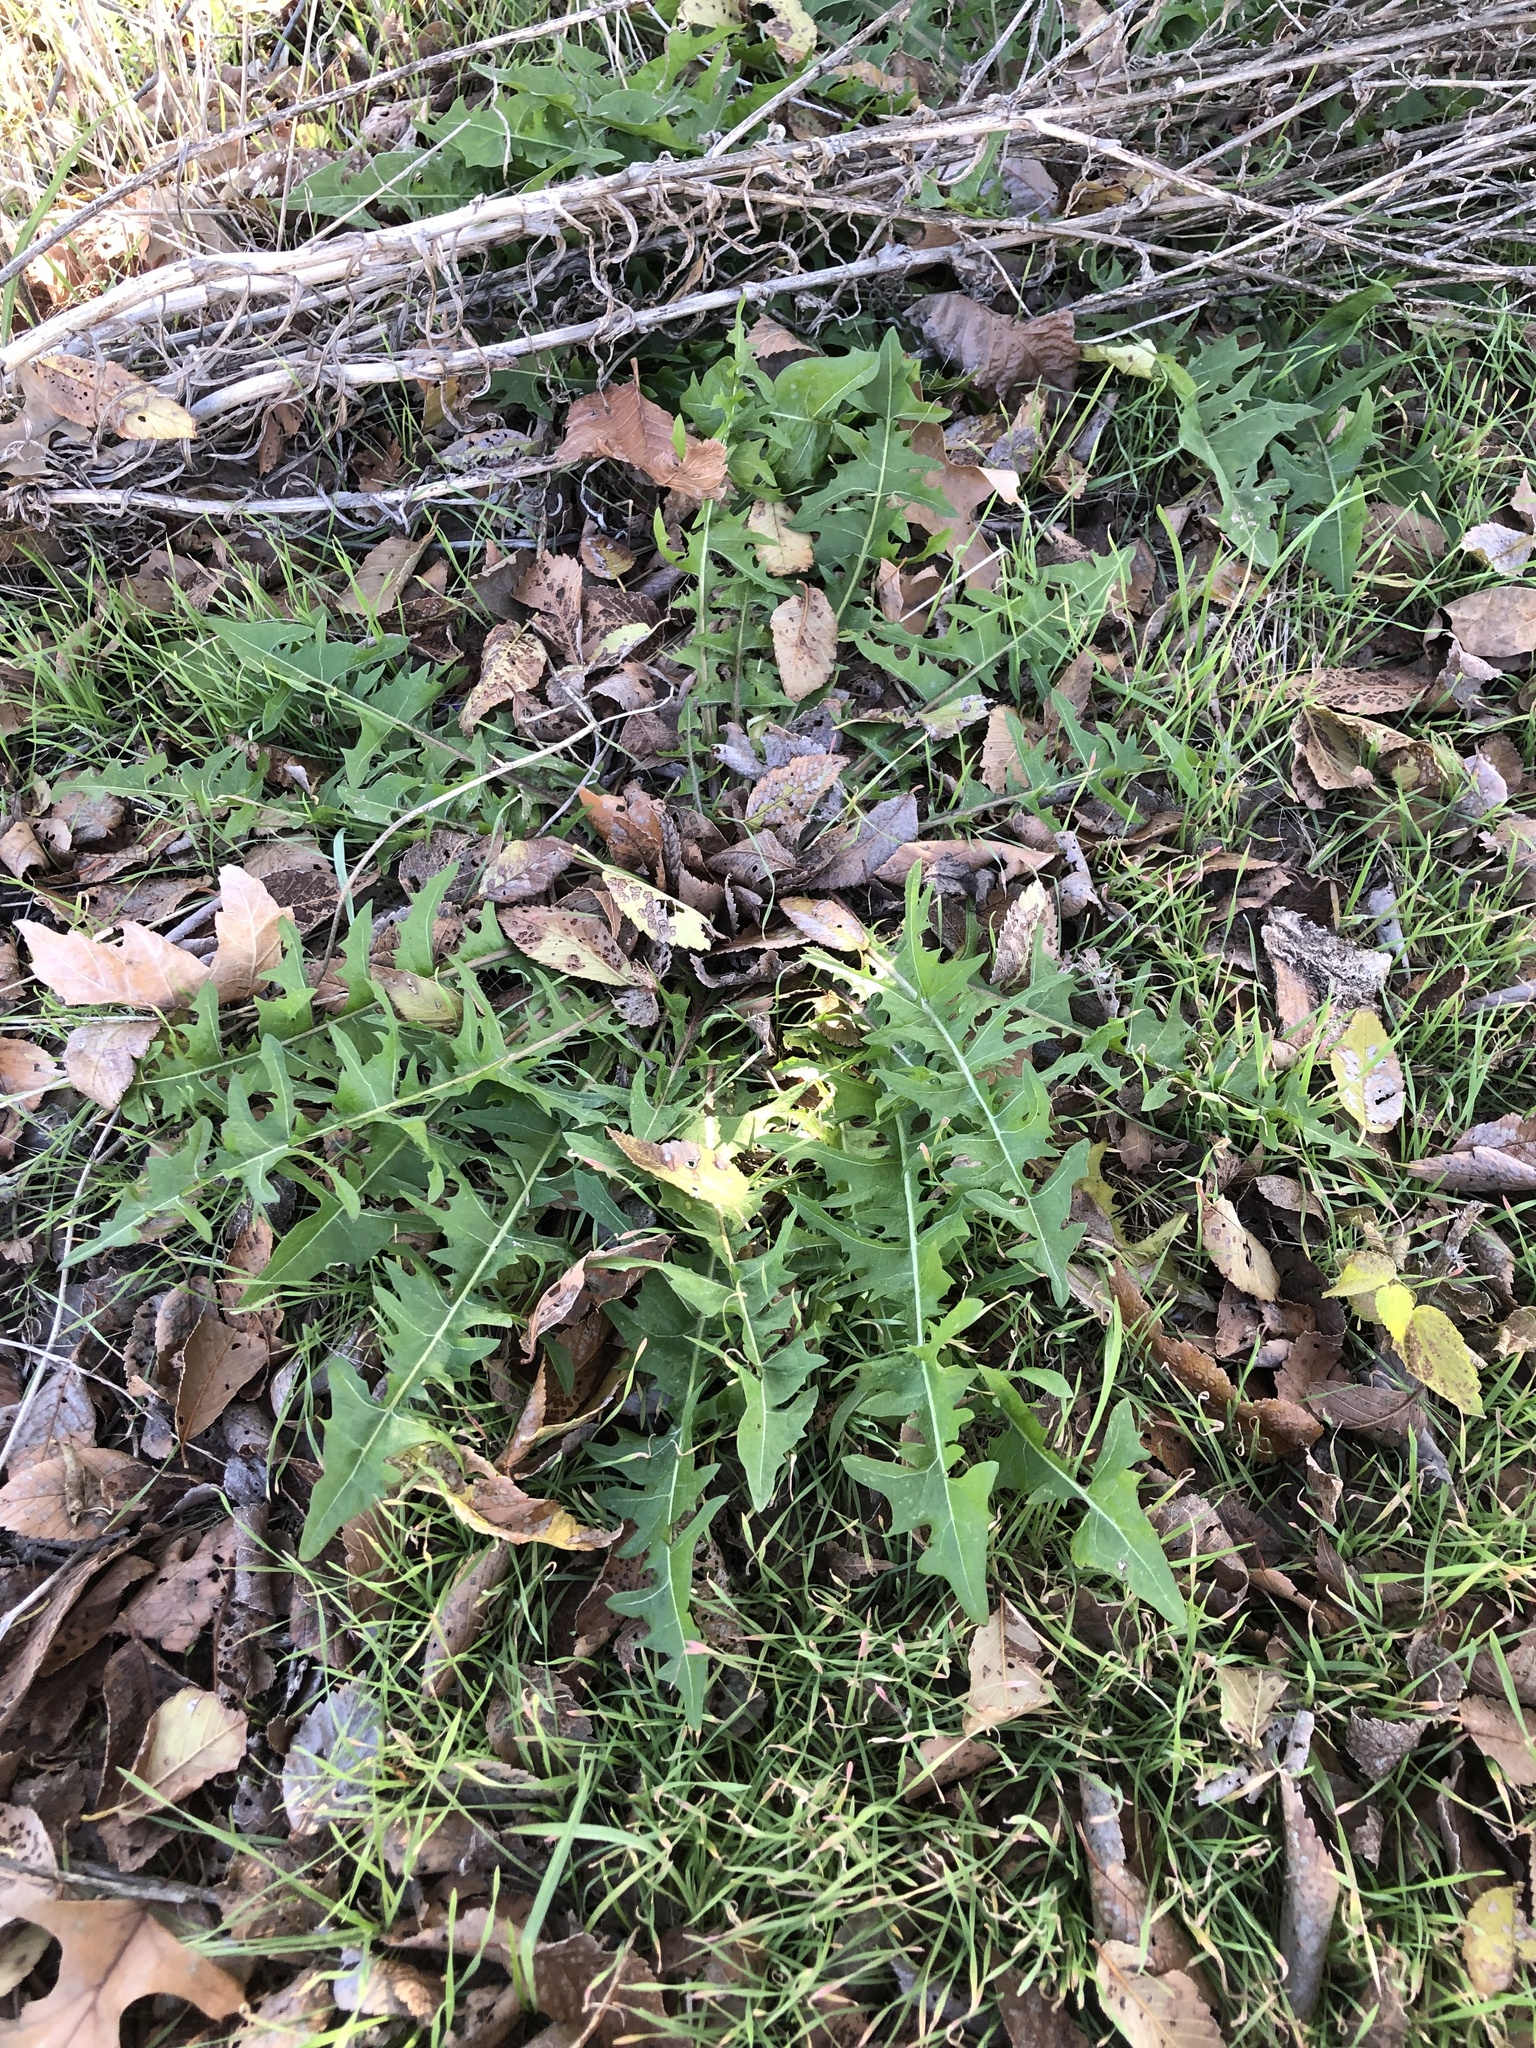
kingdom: Plantae
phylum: Tracheophyta
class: Magnoliopsida
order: Asterales
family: Asteraceae
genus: Taraxacum
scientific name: Taraxacum
